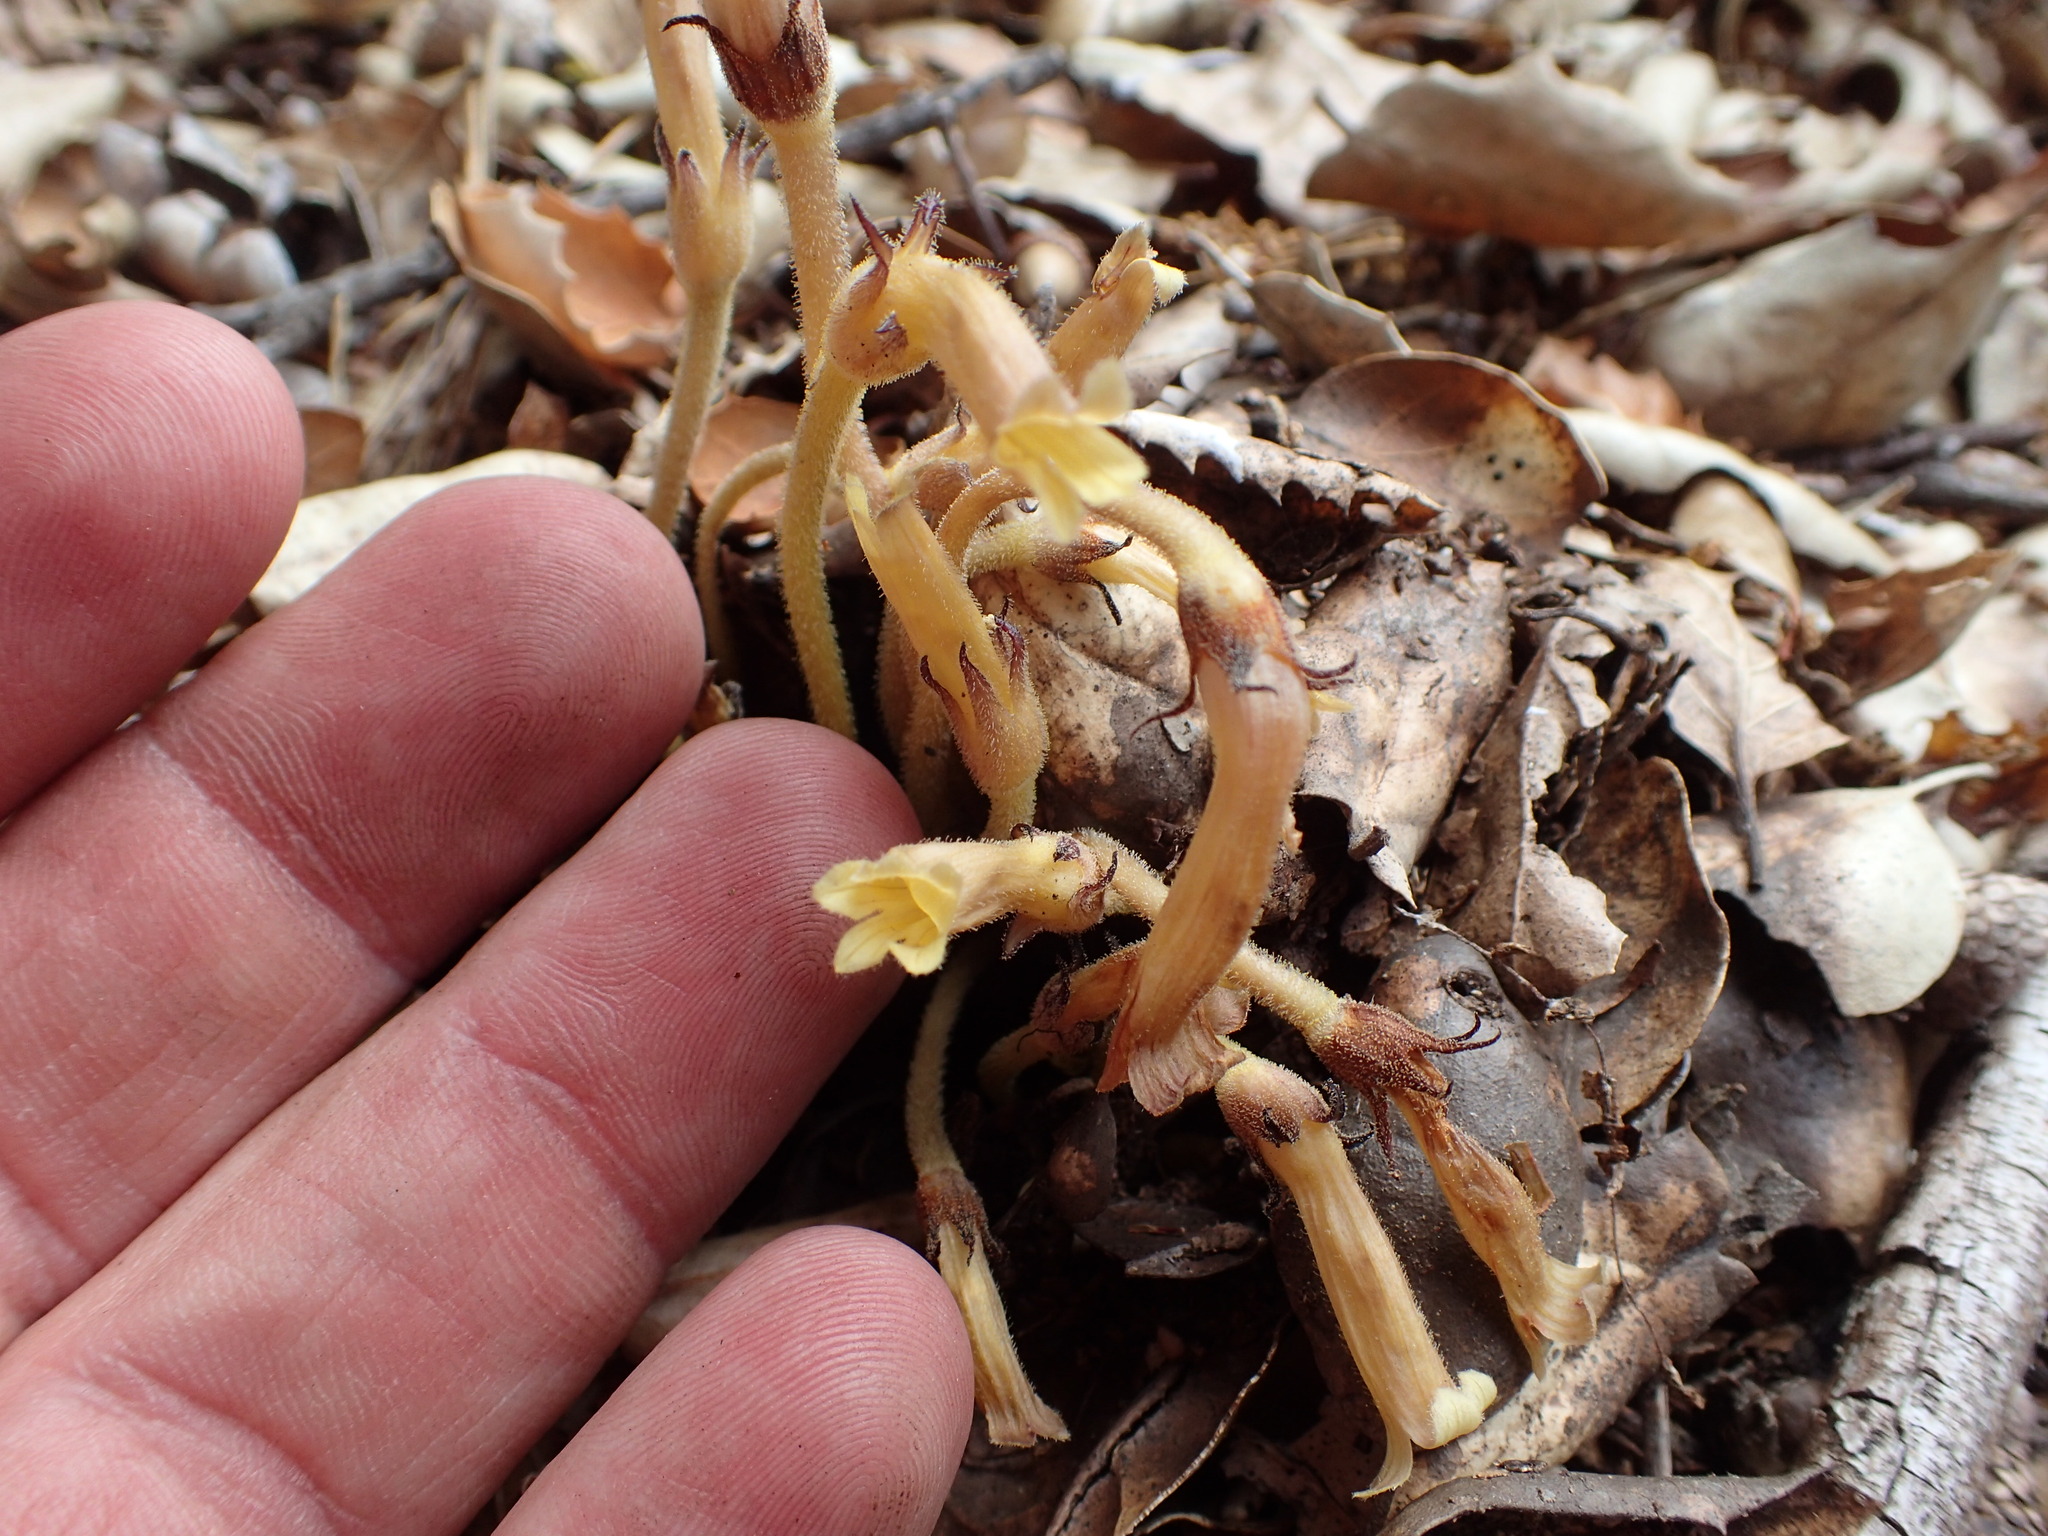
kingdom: Plantae
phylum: Tracheophyta
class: Magnoliopsida
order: Lamiales
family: Orobanchaceae
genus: Aphyllon
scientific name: Aphyllon franciscanum
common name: San francisco broomrape
